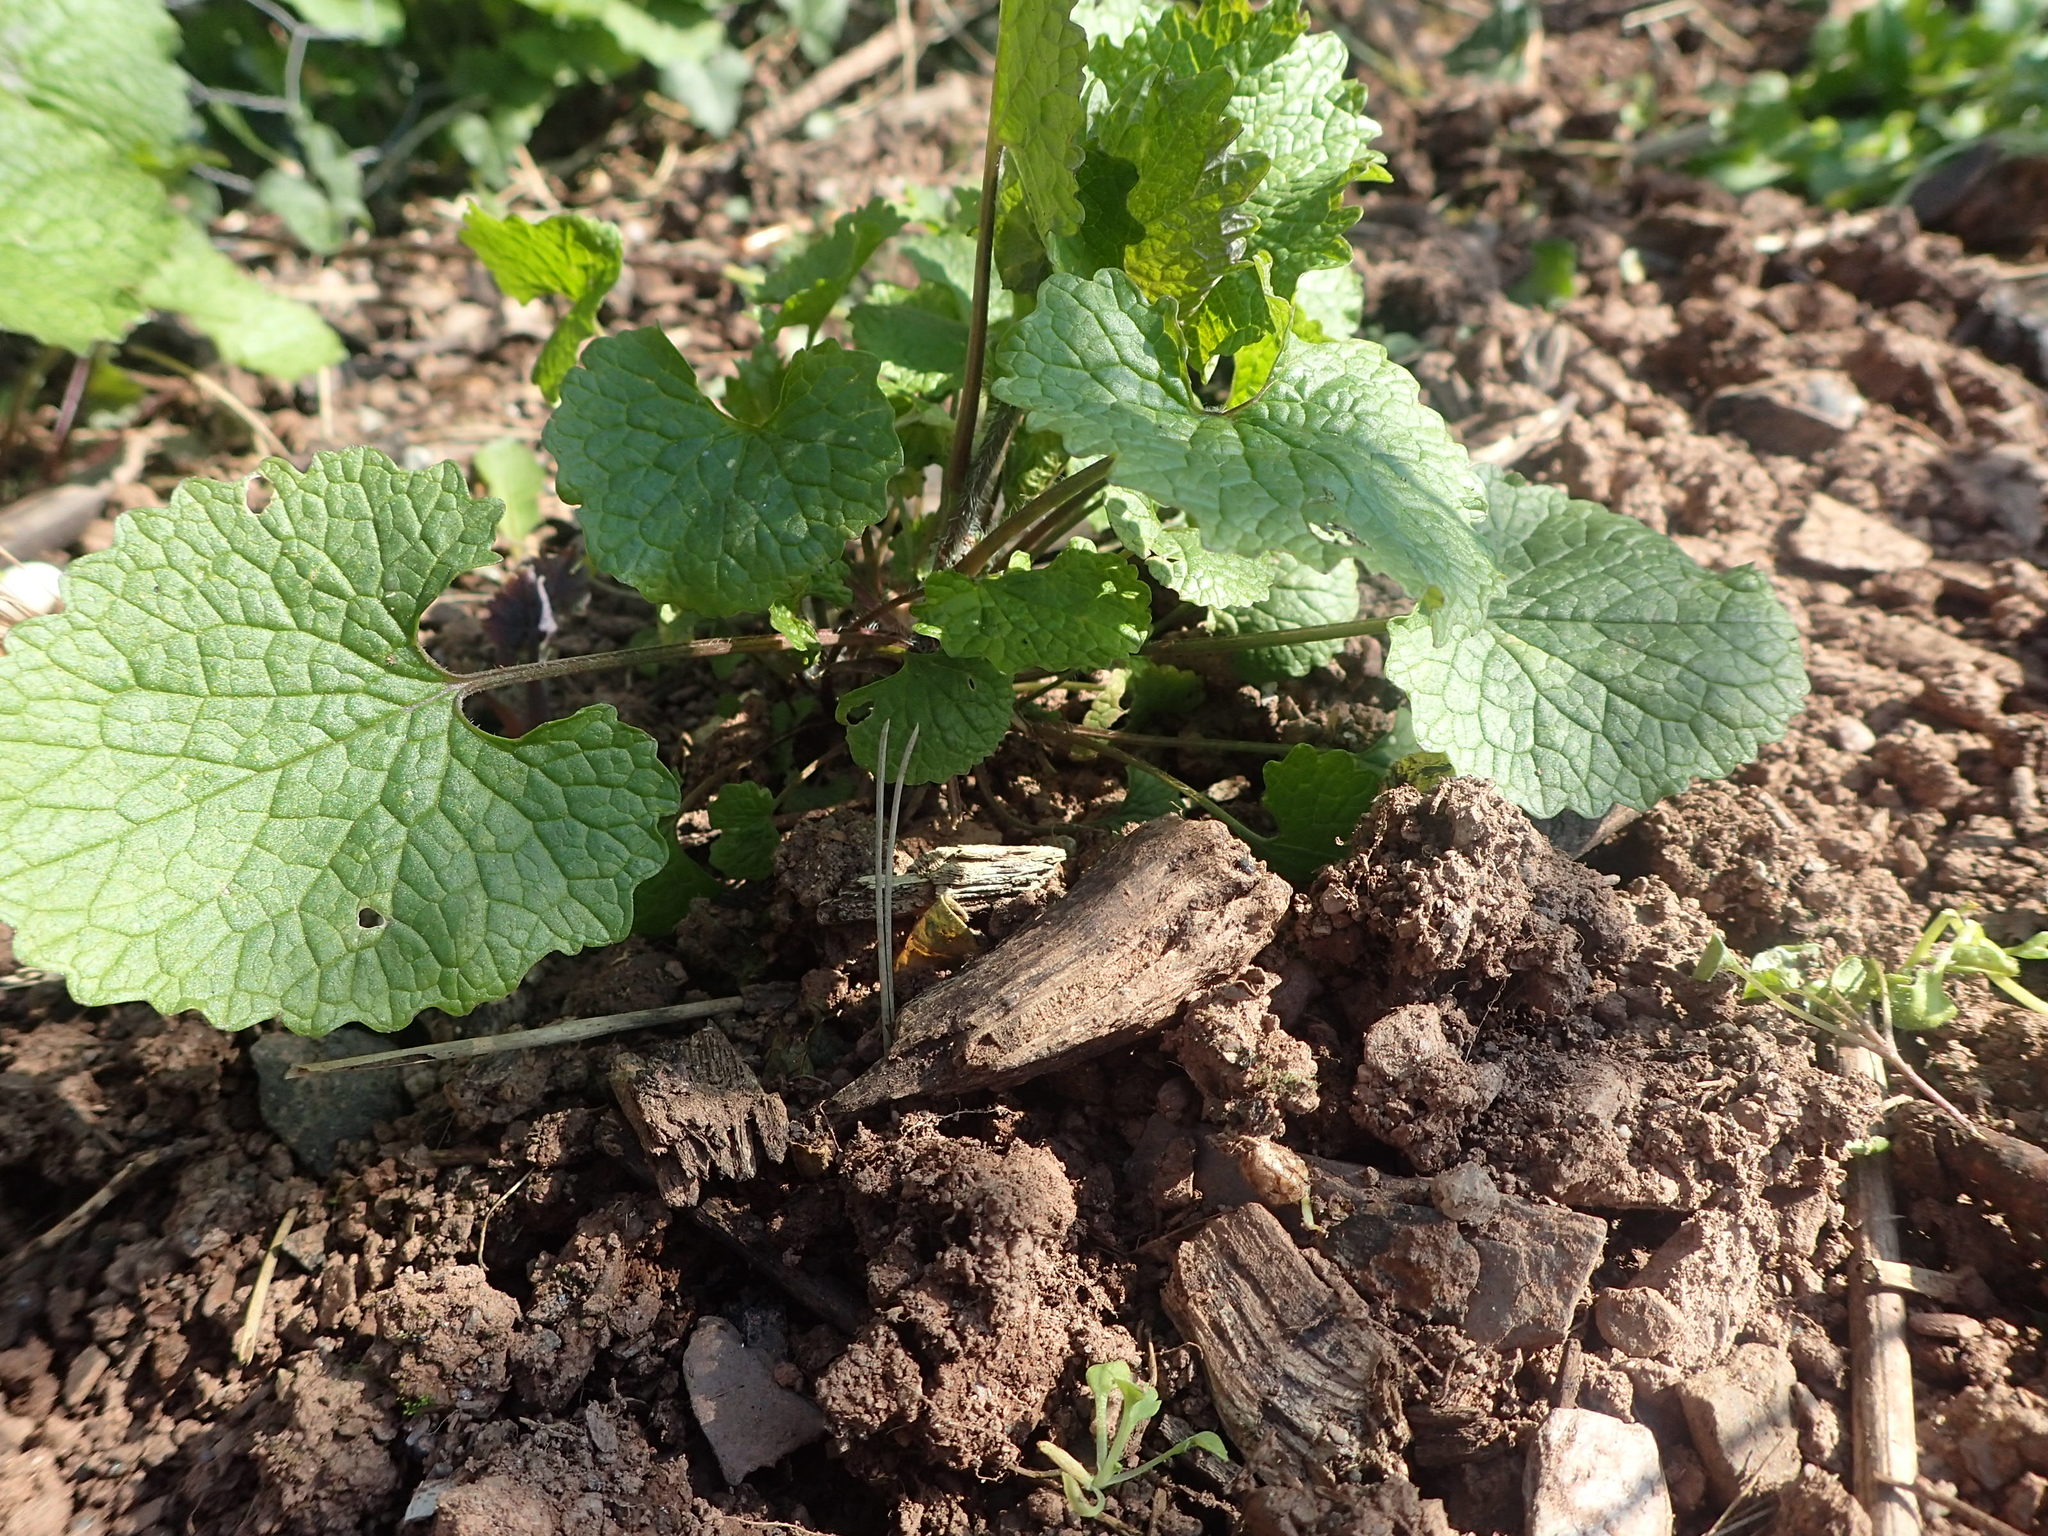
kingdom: Plantae
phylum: Tracheophyta
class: Magnoliopsida
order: Brassicales
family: Brassicaceae
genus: Alliaria
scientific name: Alliaria petiolata
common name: Garlic mustard
